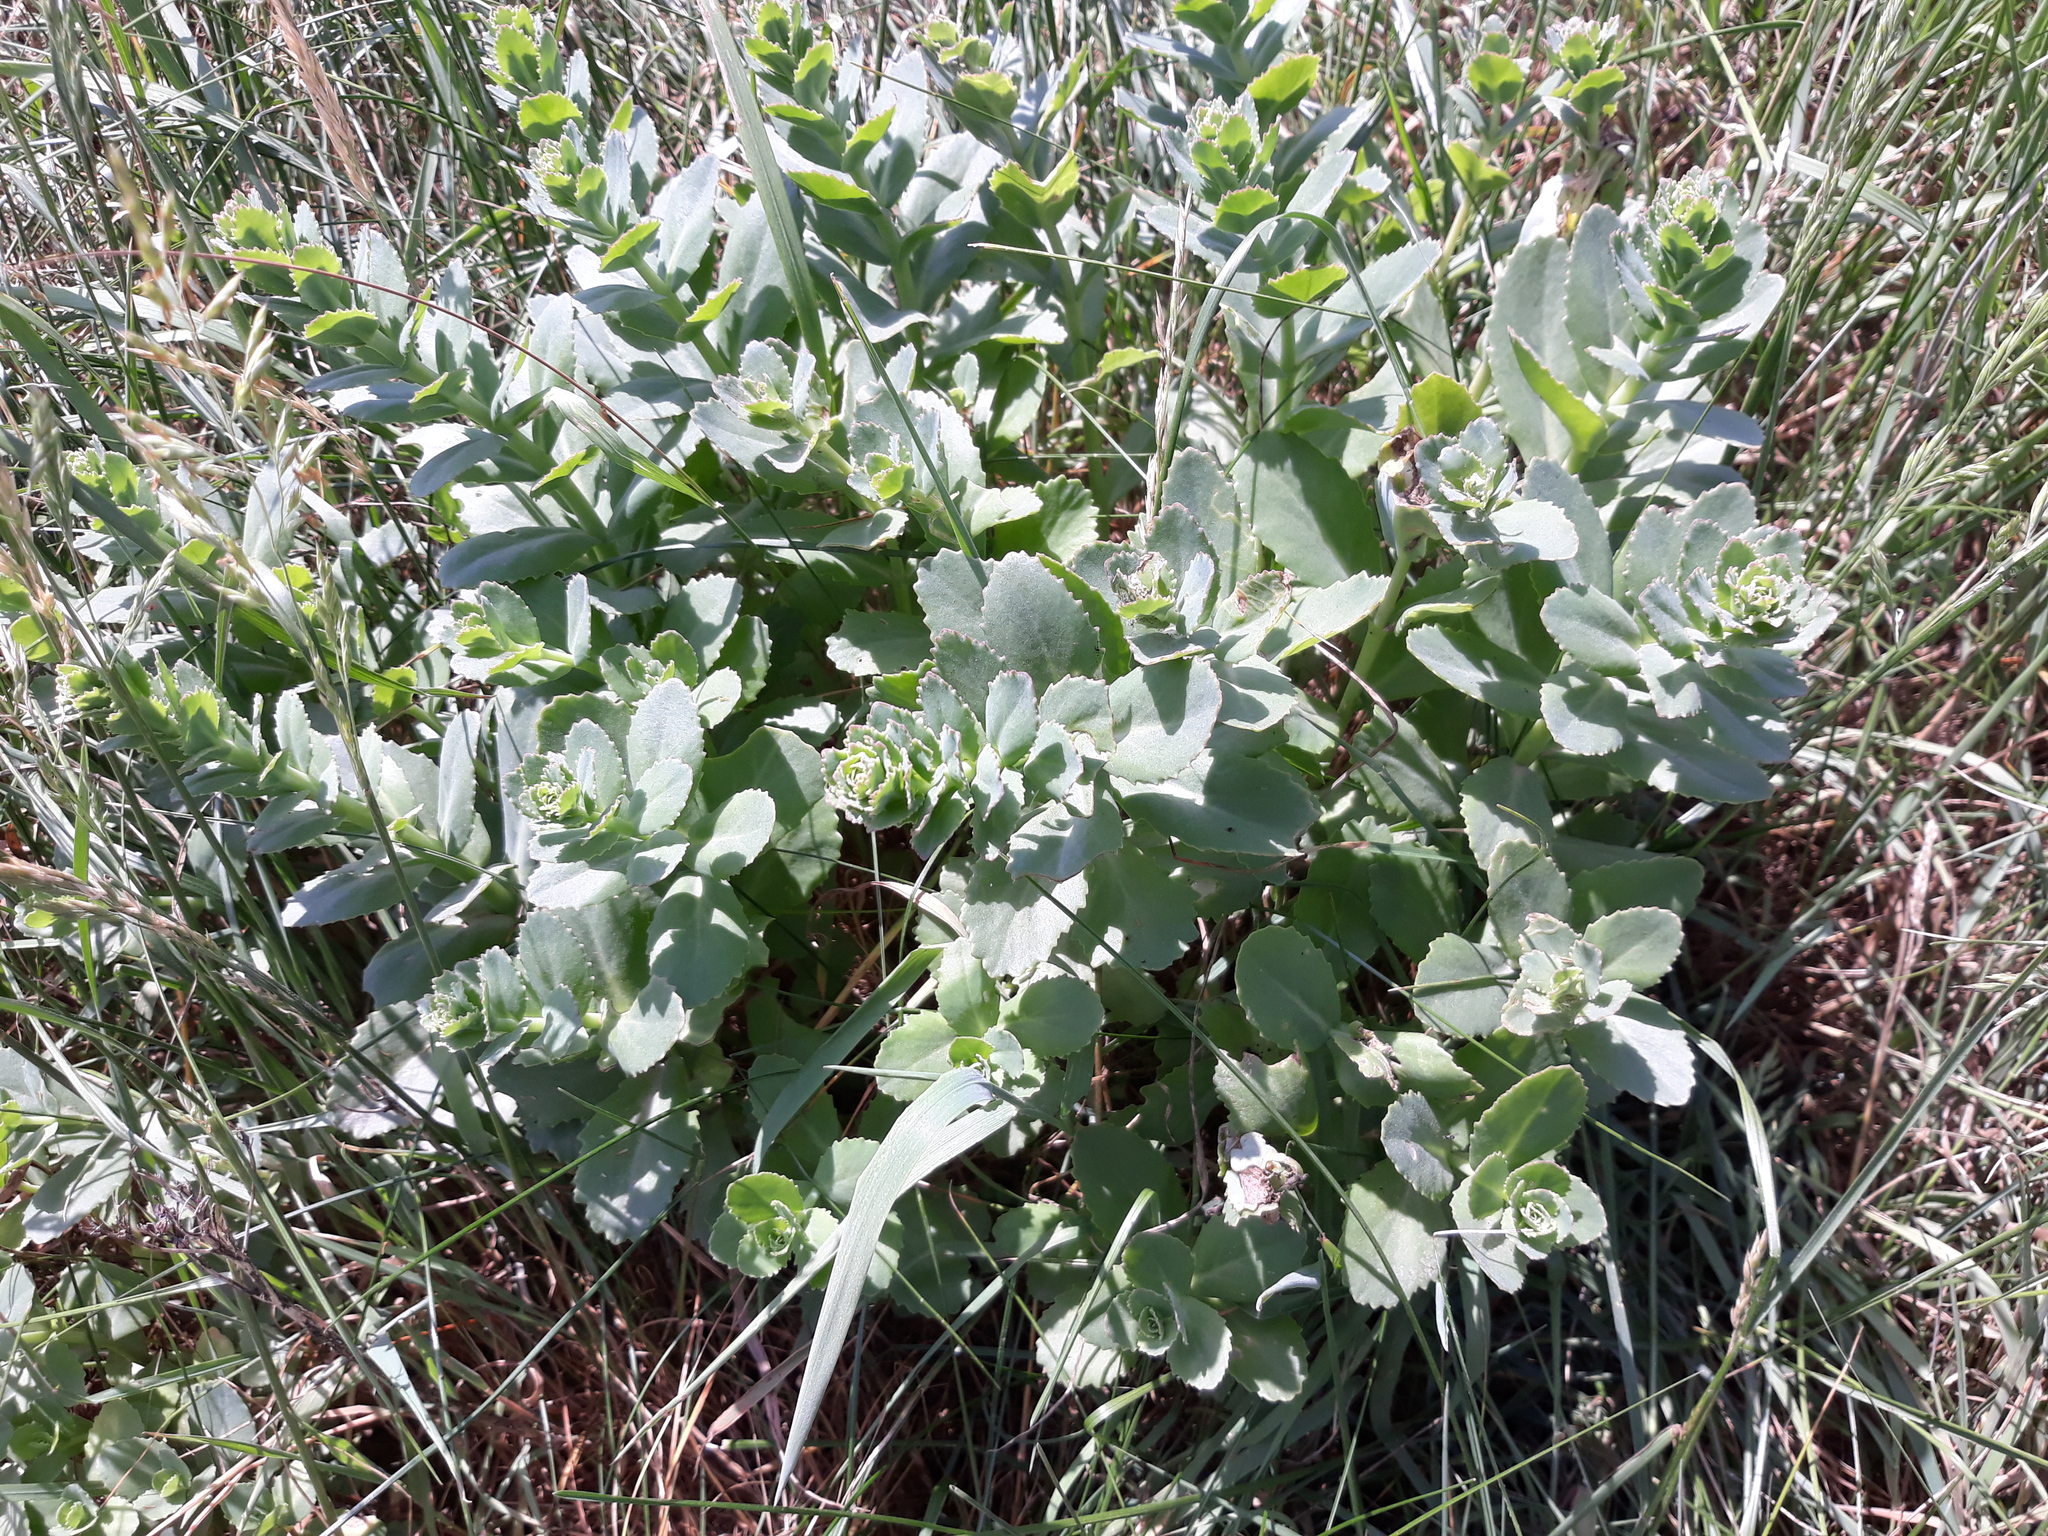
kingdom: Plantae
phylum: Tracheophyta
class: Magnoliopsida
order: Saxifragales
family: Crassulaceae
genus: Hylotelephium
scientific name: Hylotelephium telephium
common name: Live-forever
